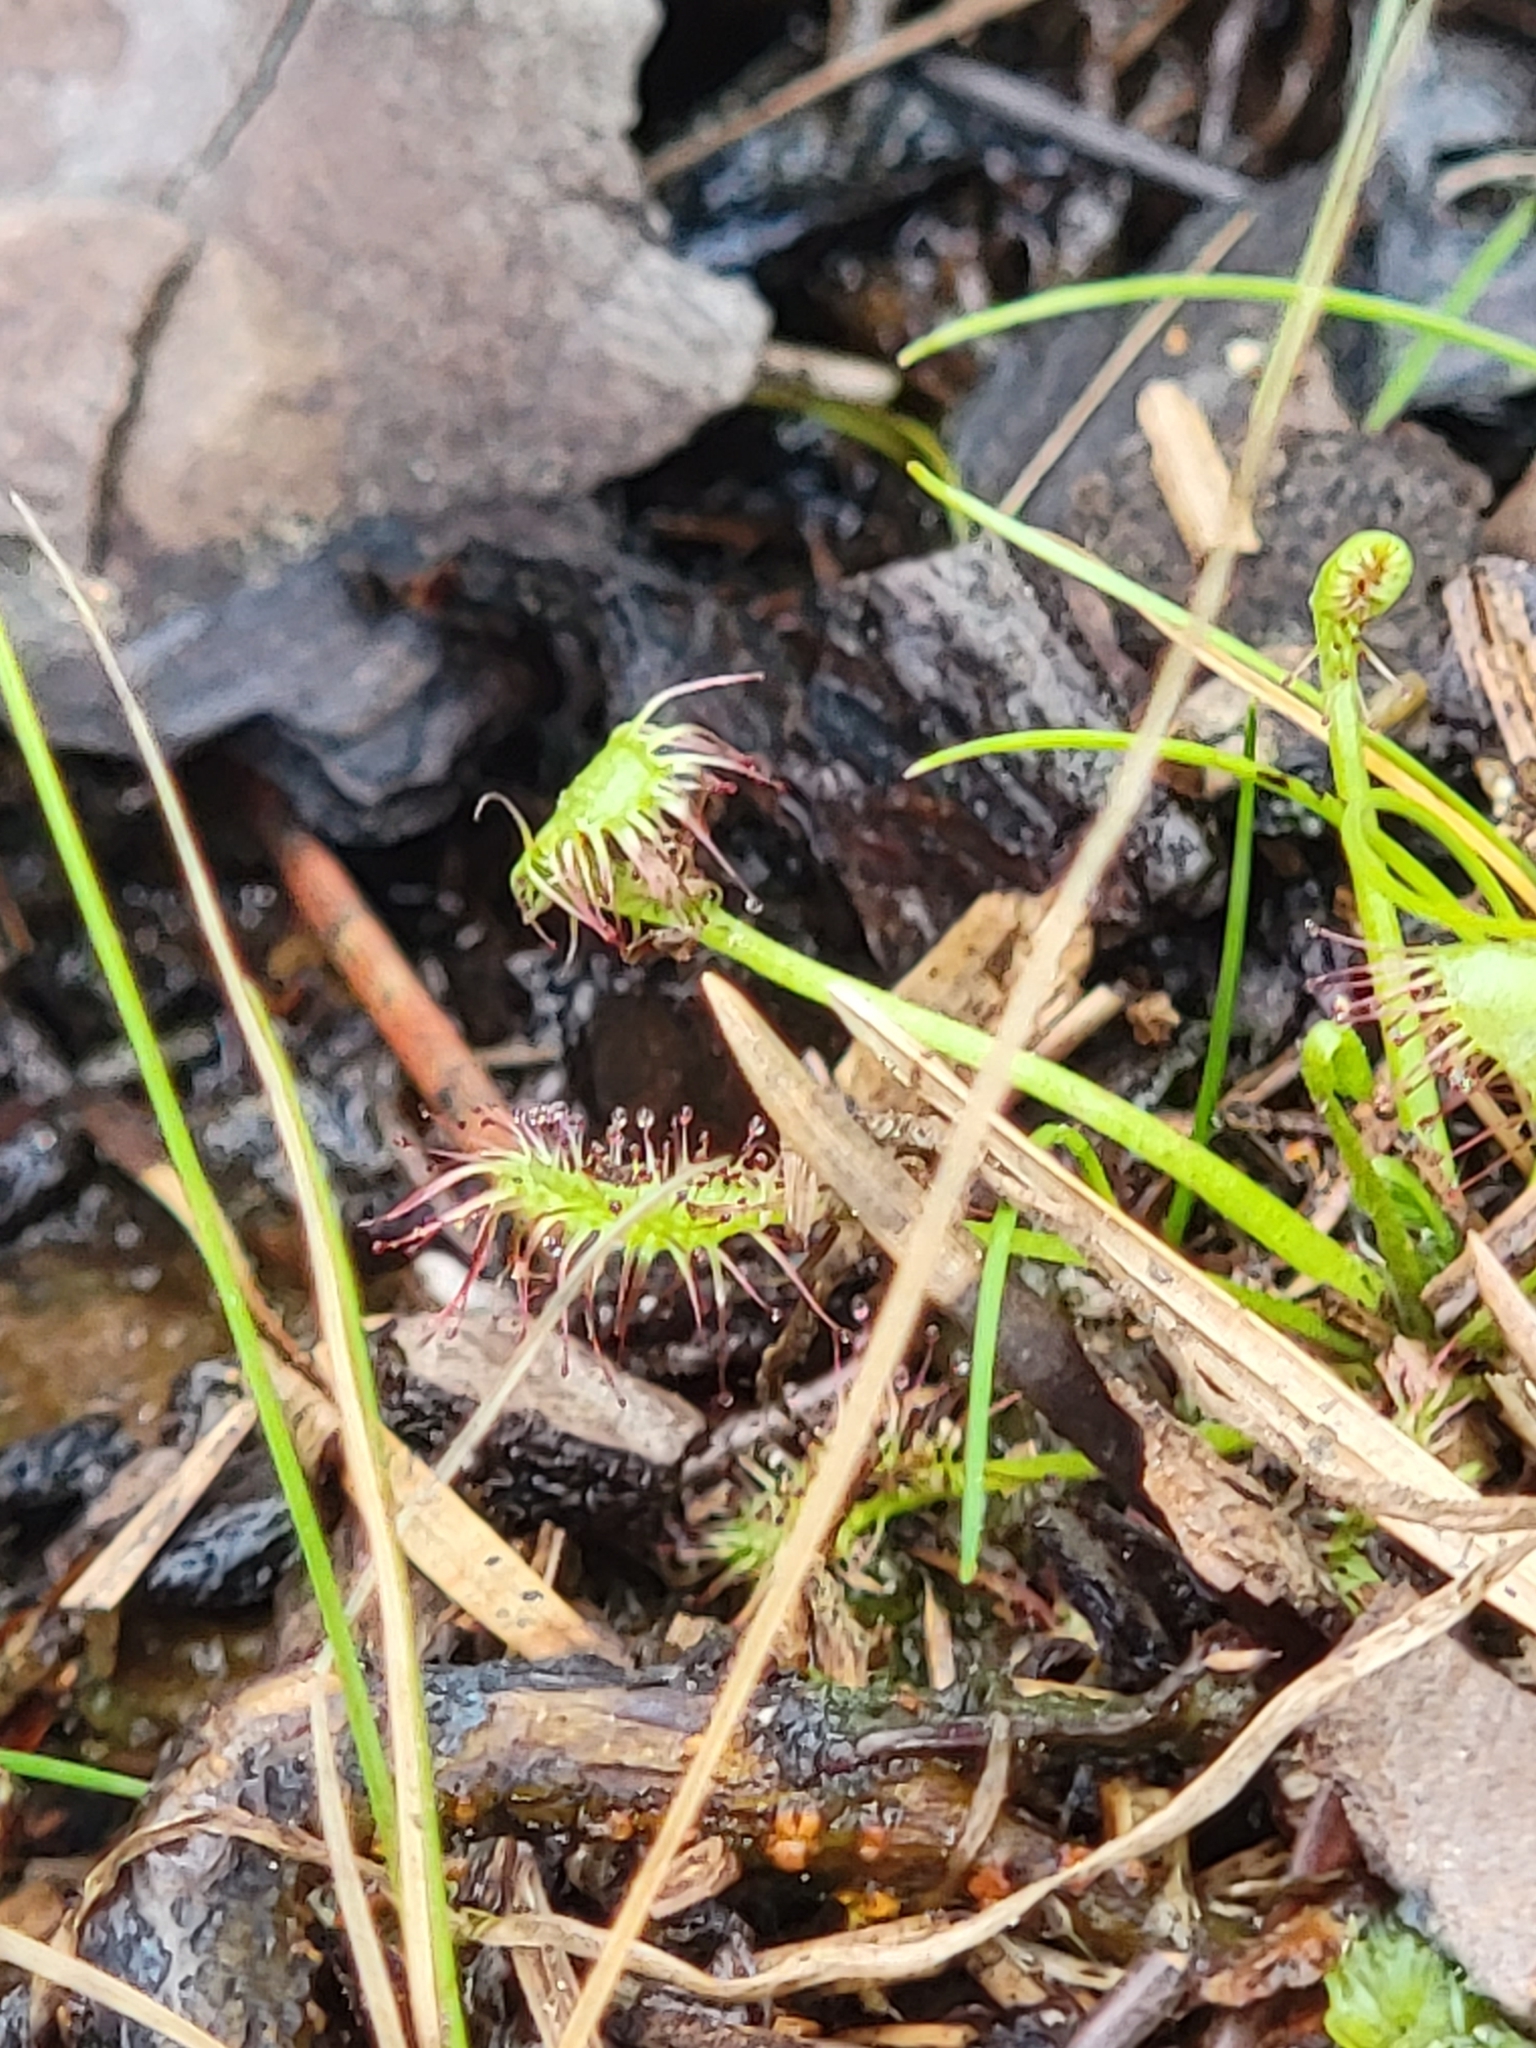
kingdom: Plantae
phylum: Tracheophyta
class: Magnoliopsida
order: Caryophyllales
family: Droseraceae
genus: Drosera
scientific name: Drosera eloisiana
